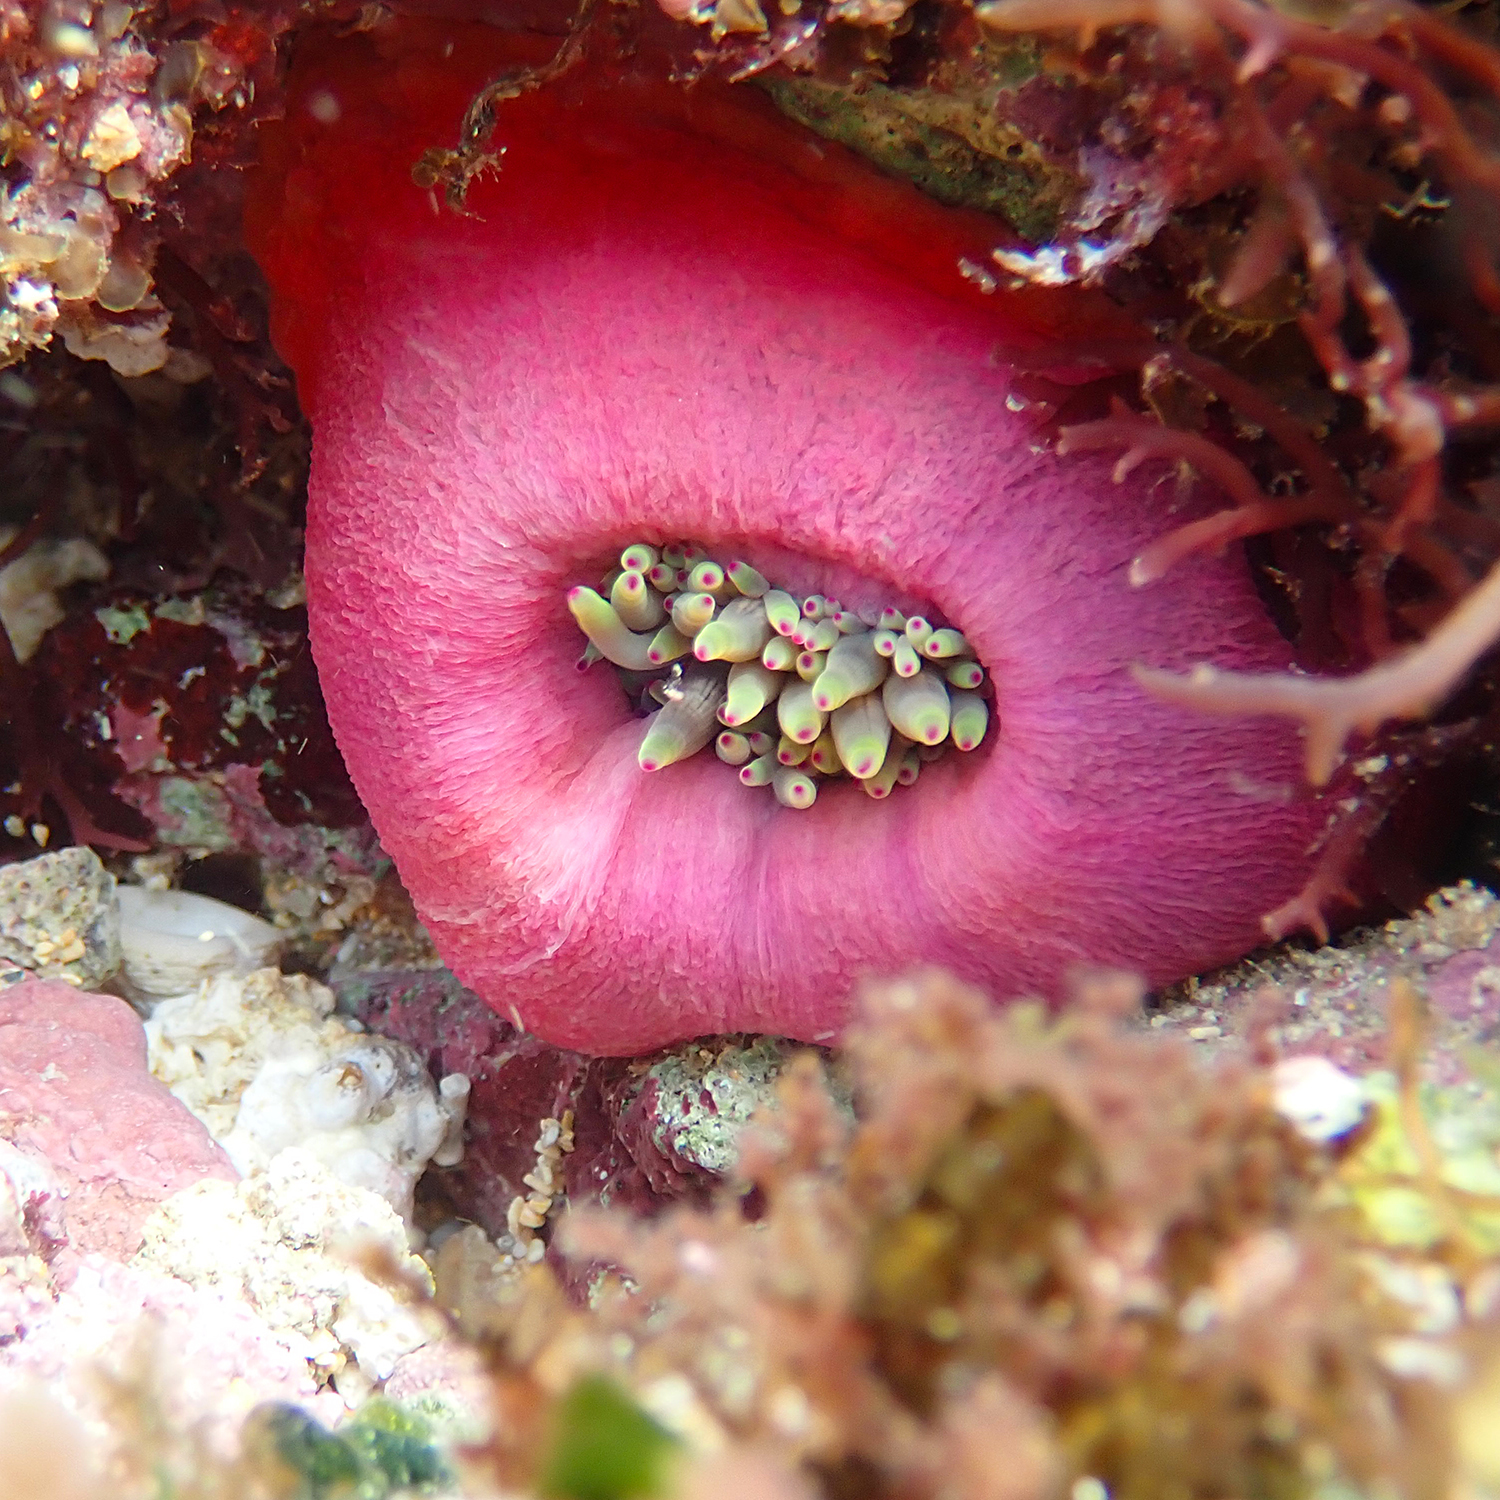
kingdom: Animalia
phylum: Cnidaria
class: Anthozoa
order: Actiniaria
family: Actiniidae
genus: Entacmaea
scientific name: Entacmaea quadricolor
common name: Bulb tentacle sea anemone
